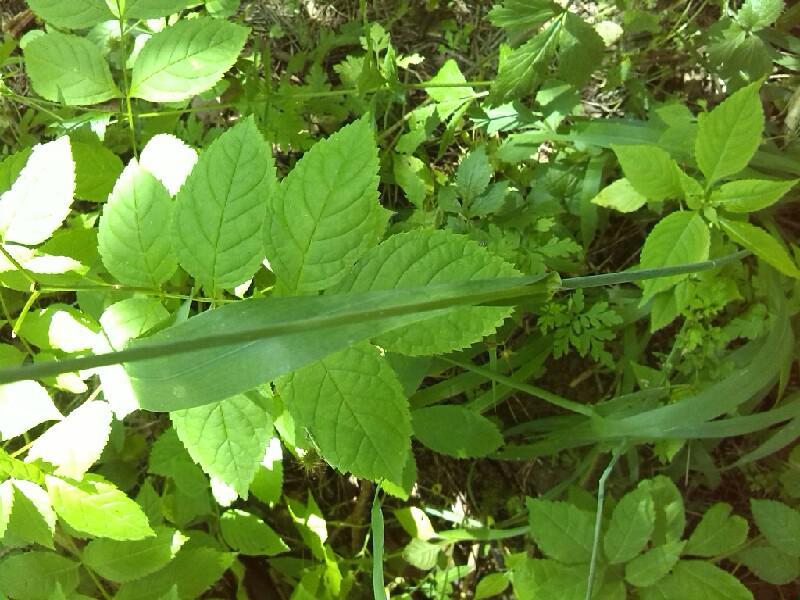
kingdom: Plantae
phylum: Tracheophyta
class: Liliopsida
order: Poales
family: Poaceae
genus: Milium
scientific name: Milium effusum
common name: Wood millet
